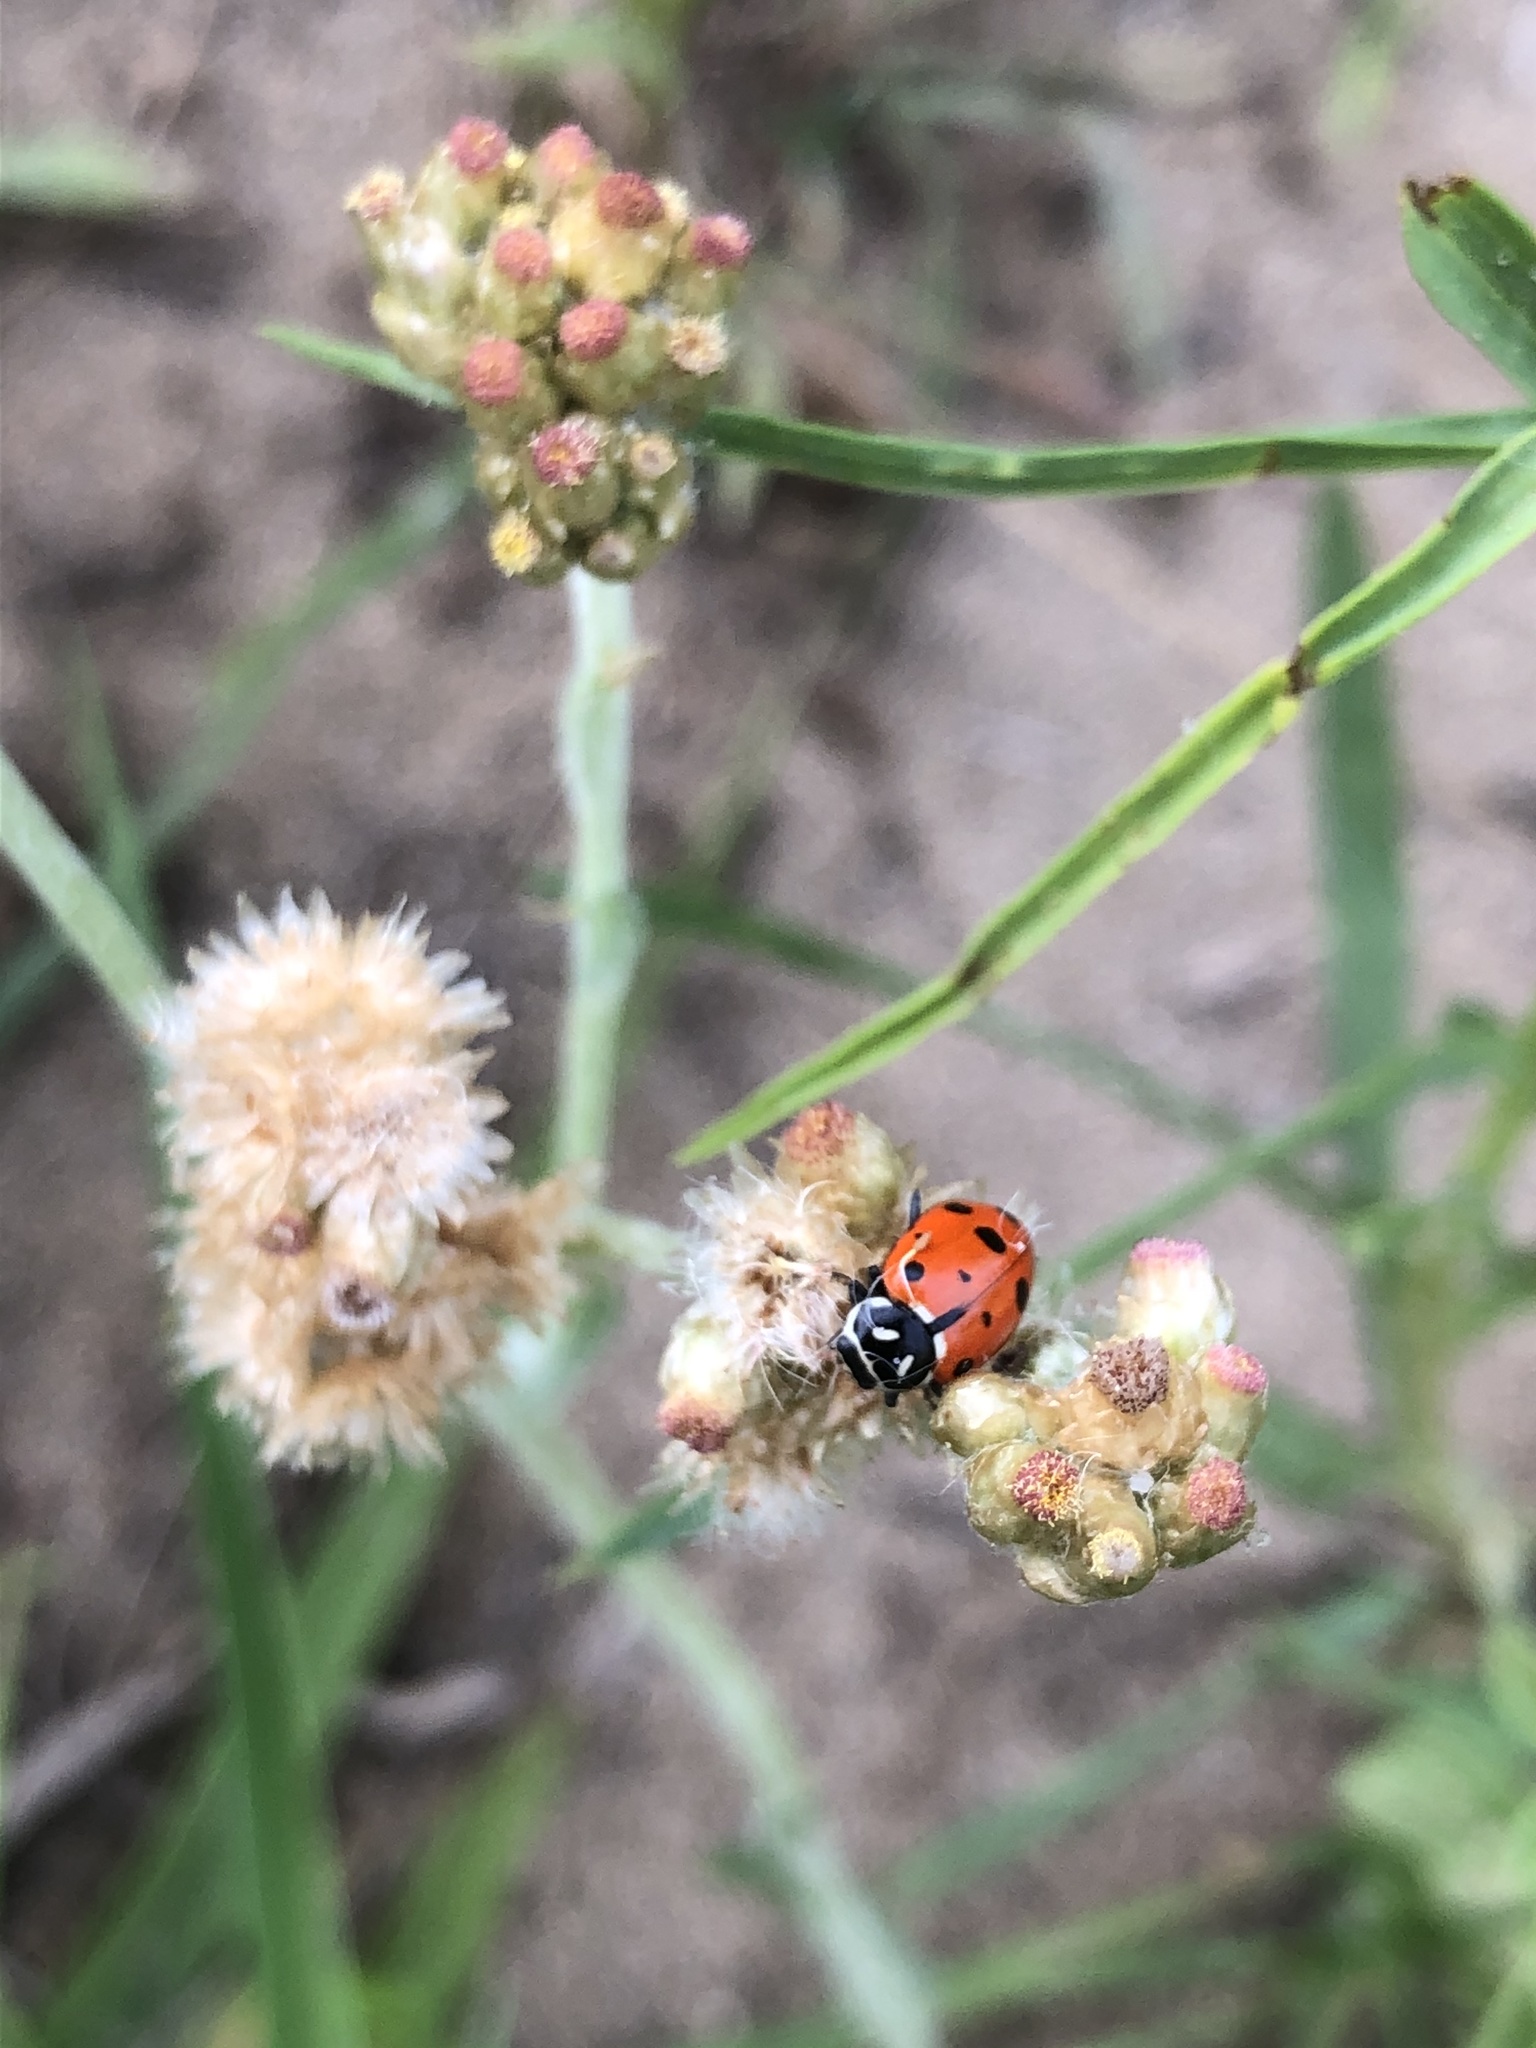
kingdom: Animalia
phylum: Arthropoda
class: Insecta
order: Coleoptera
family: Coccinellidae
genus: Hippodamia
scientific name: Hippodamia convergens
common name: Convergent lady beetle
